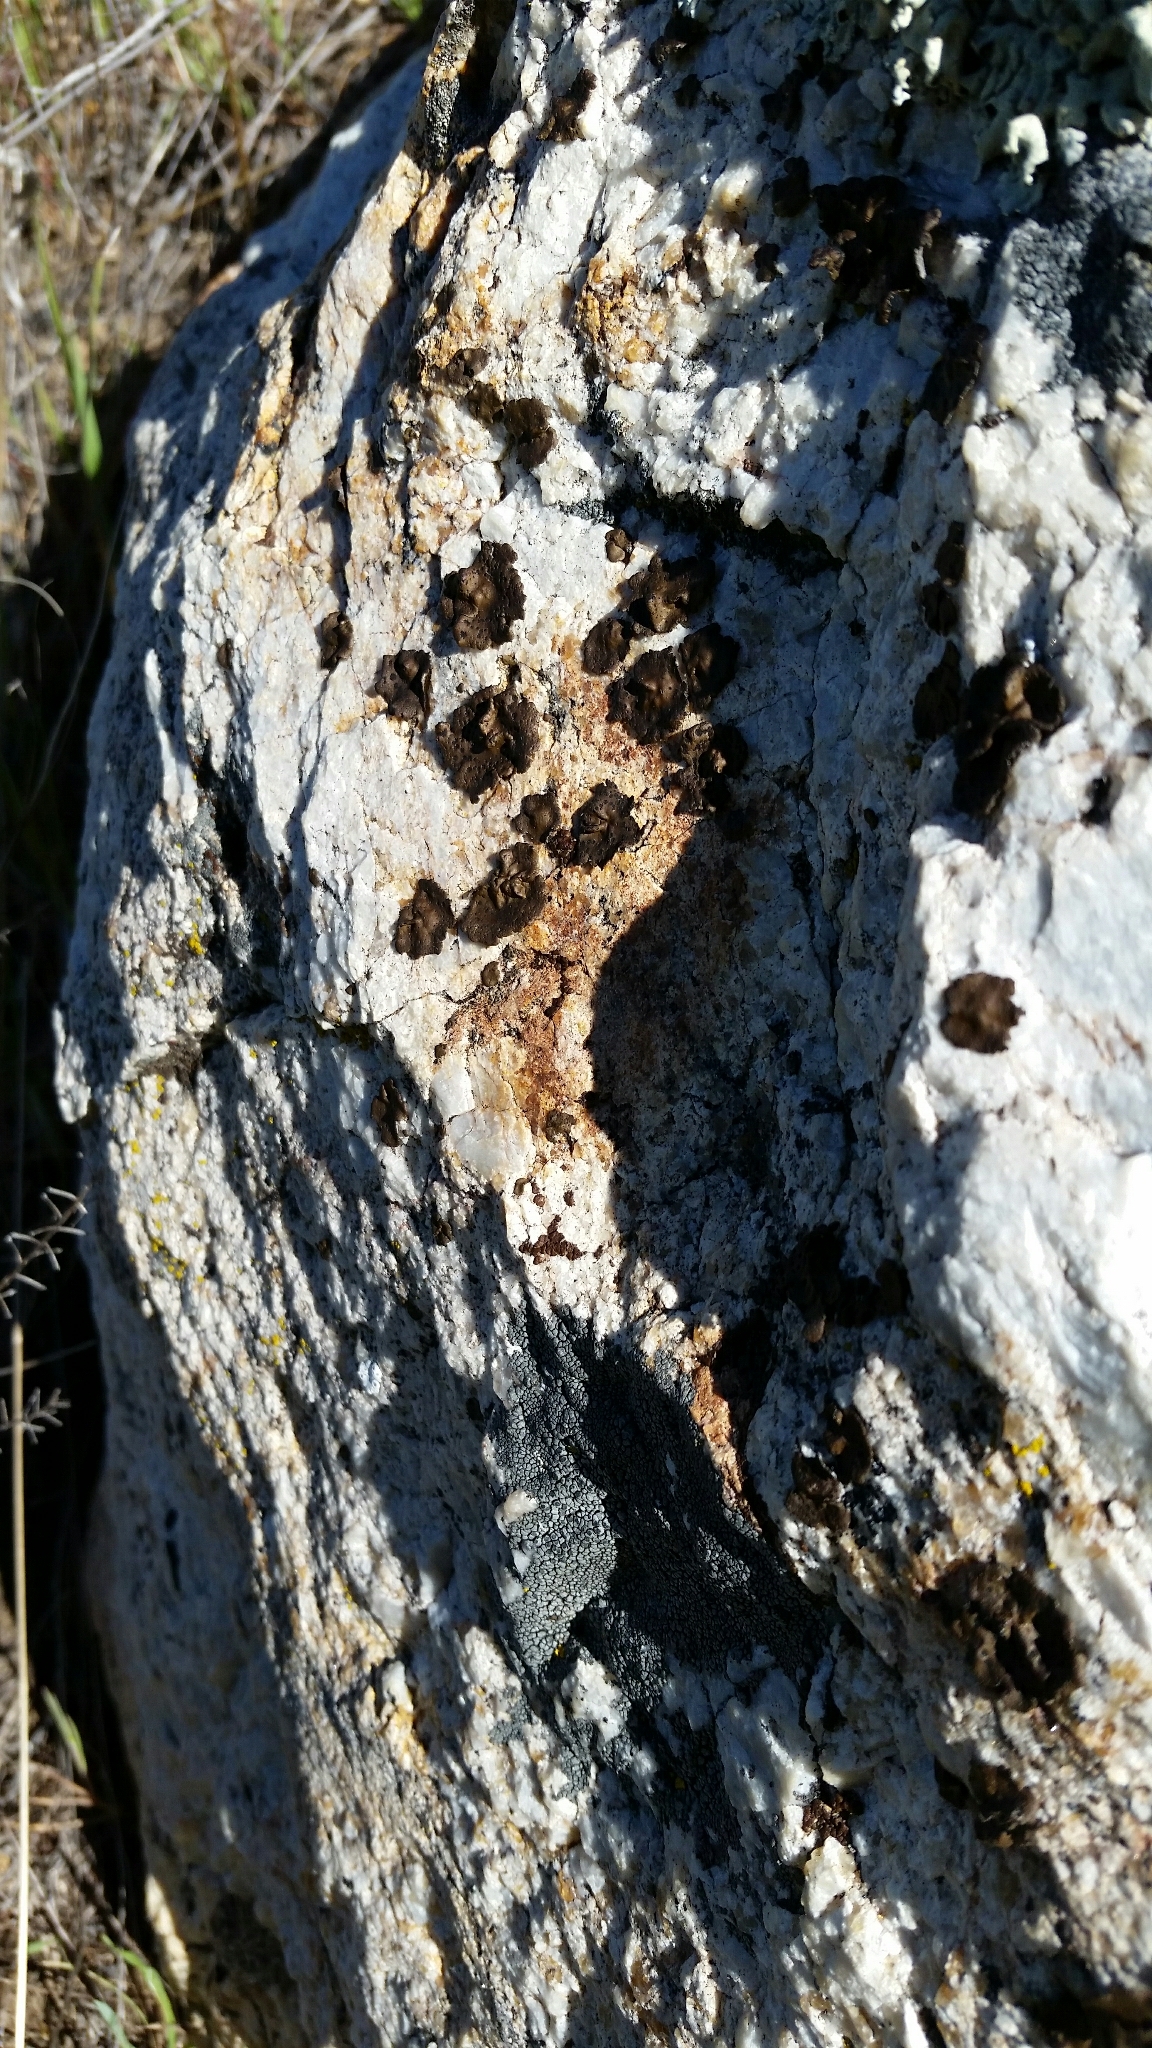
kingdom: Fungi
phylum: Ascomycota
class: Lecanoromycetes
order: Umbilicariales
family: Umbilicariaceae
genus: Umbilicaria
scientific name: Umbilicaria phaea
